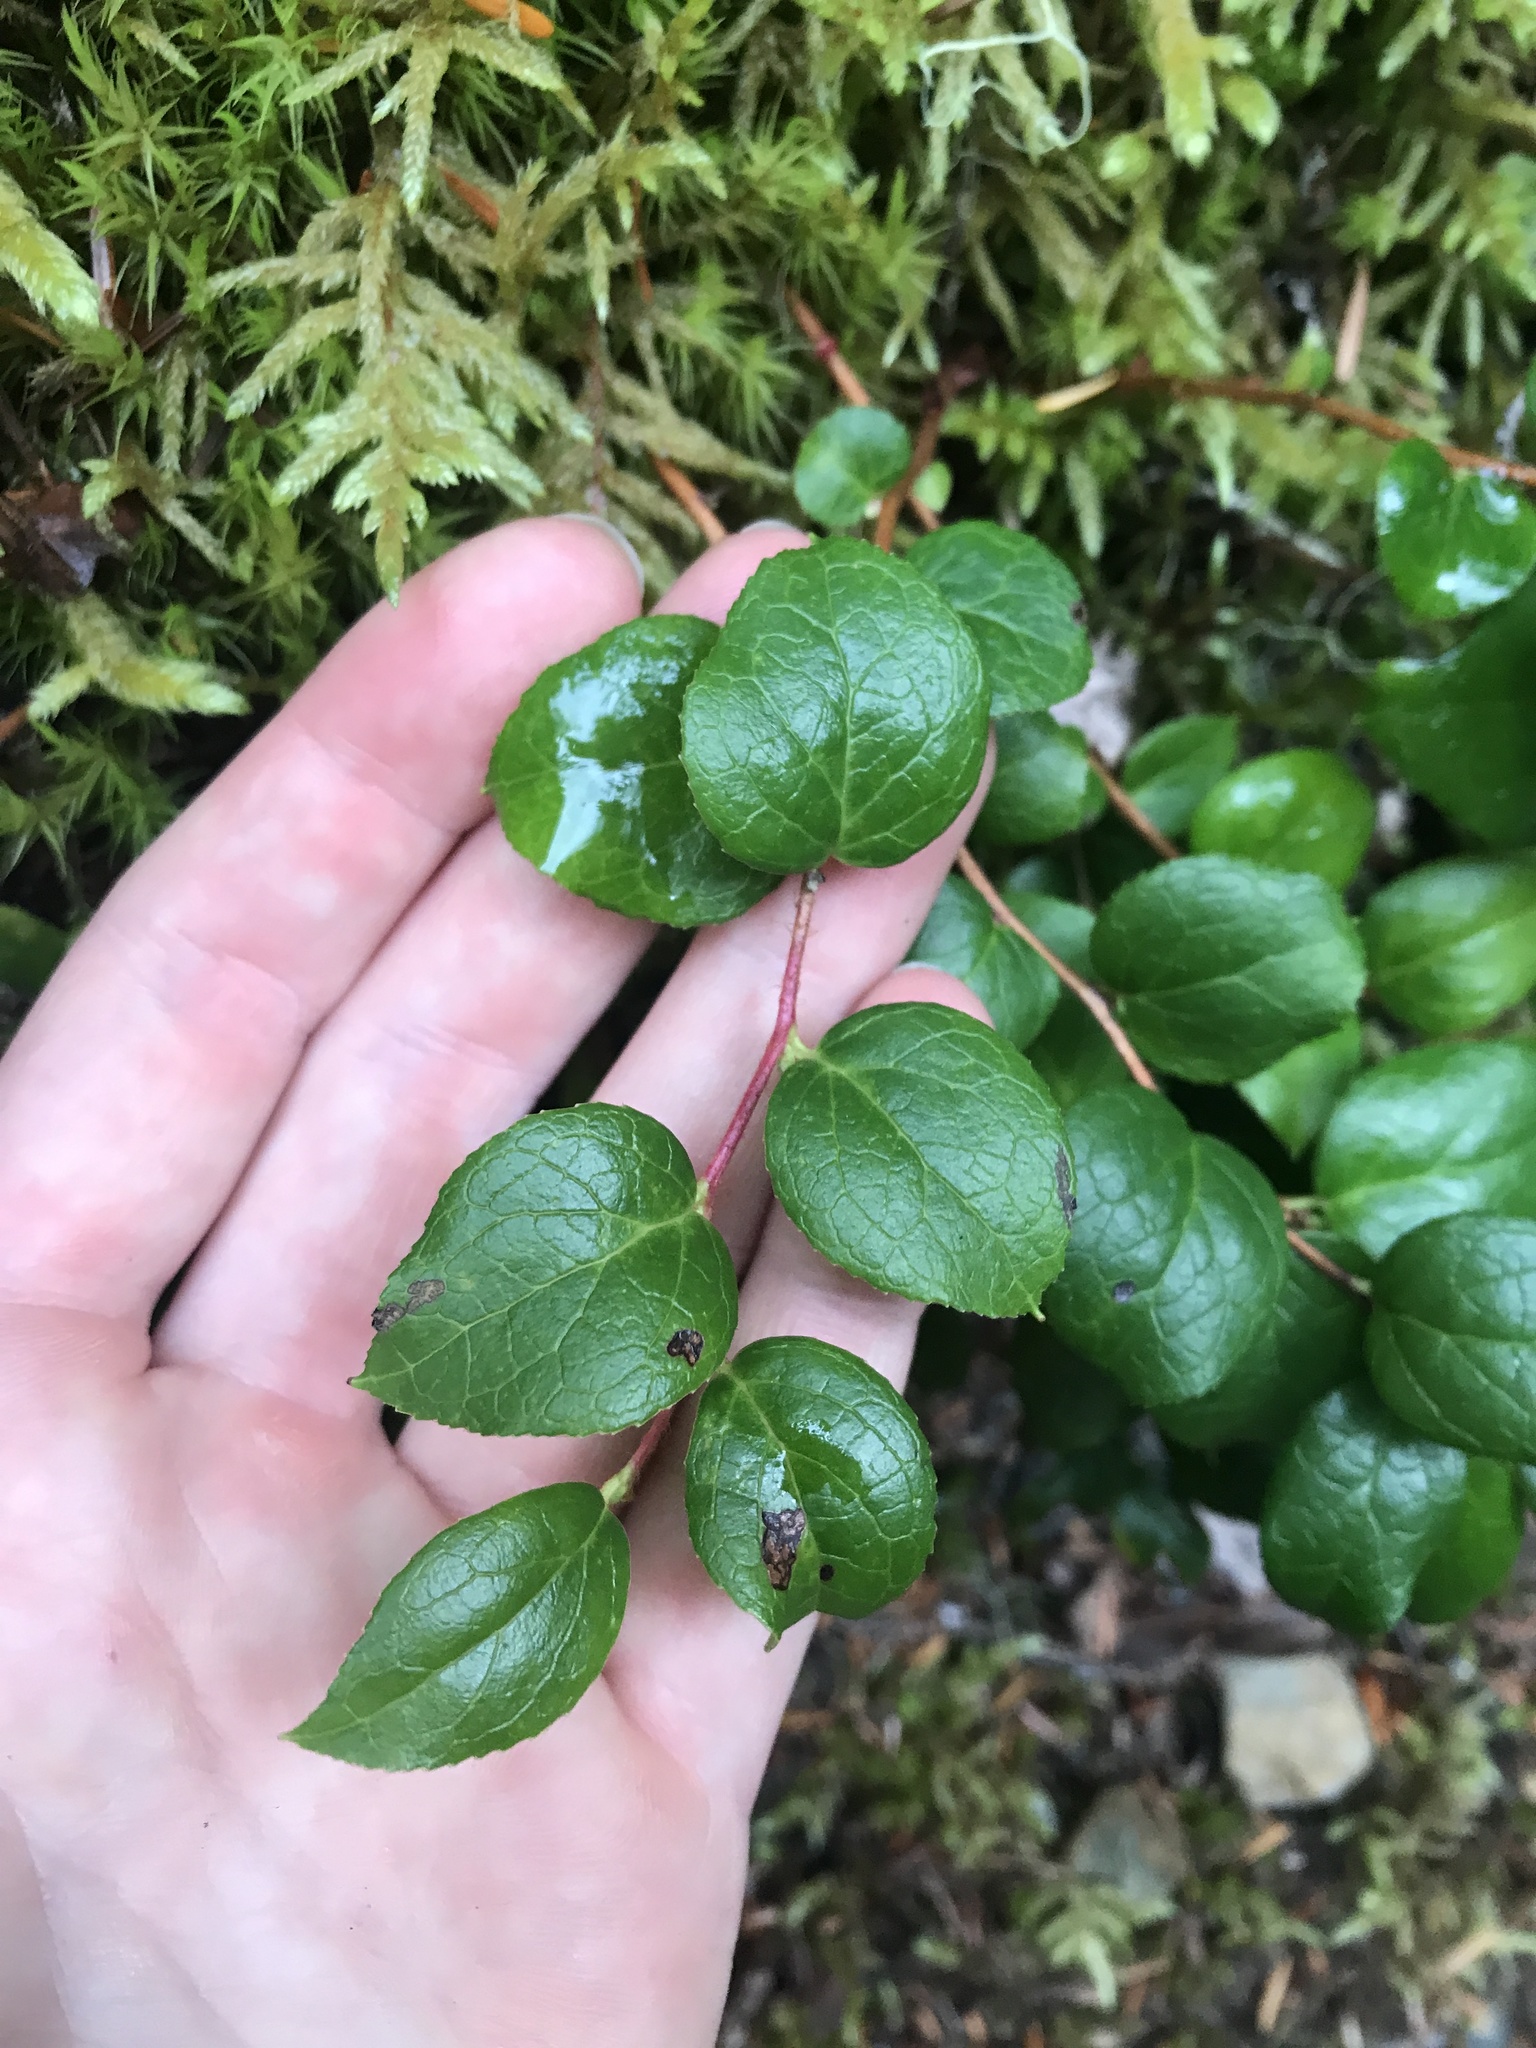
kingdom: Plantae
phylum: Tracheophyta
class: Magnoliopsida
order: Ericales
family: Ericaceae
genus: Gaultheria
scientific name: Gaultheria ovatifolia
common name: Oregon wintergreen
